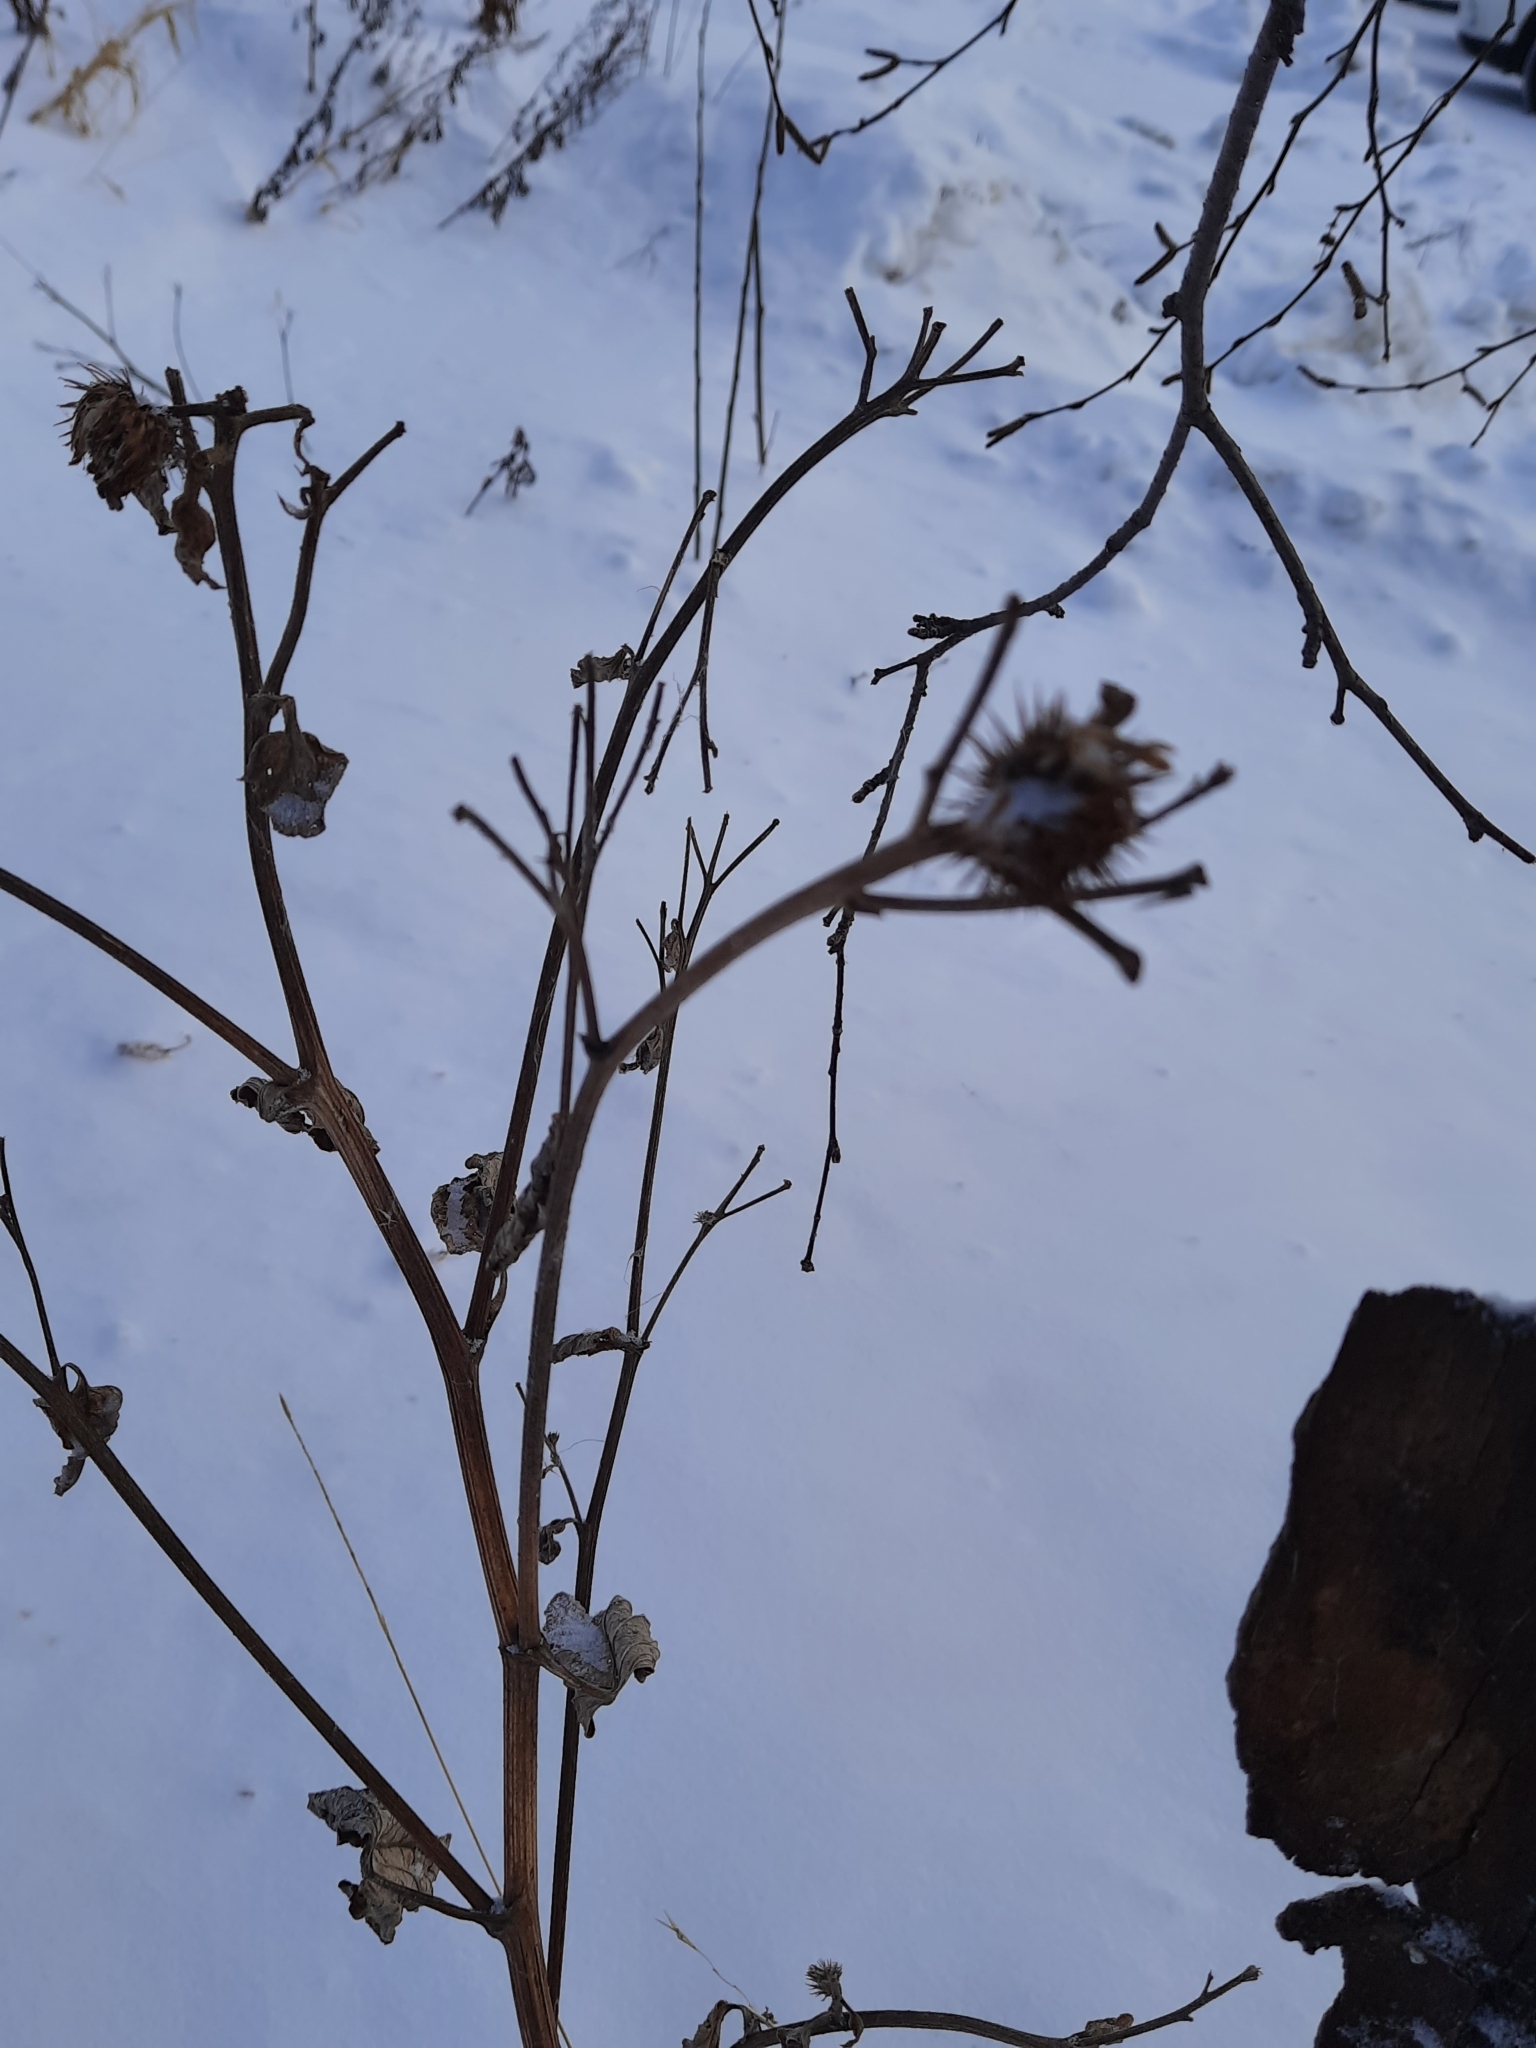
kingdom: Plantae
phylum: Tracheophyta
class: Magnoliopsida
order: Asterales
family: Asteraceae
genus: Arctium
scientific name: Arctium tomentosum
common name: Woolly burdock
